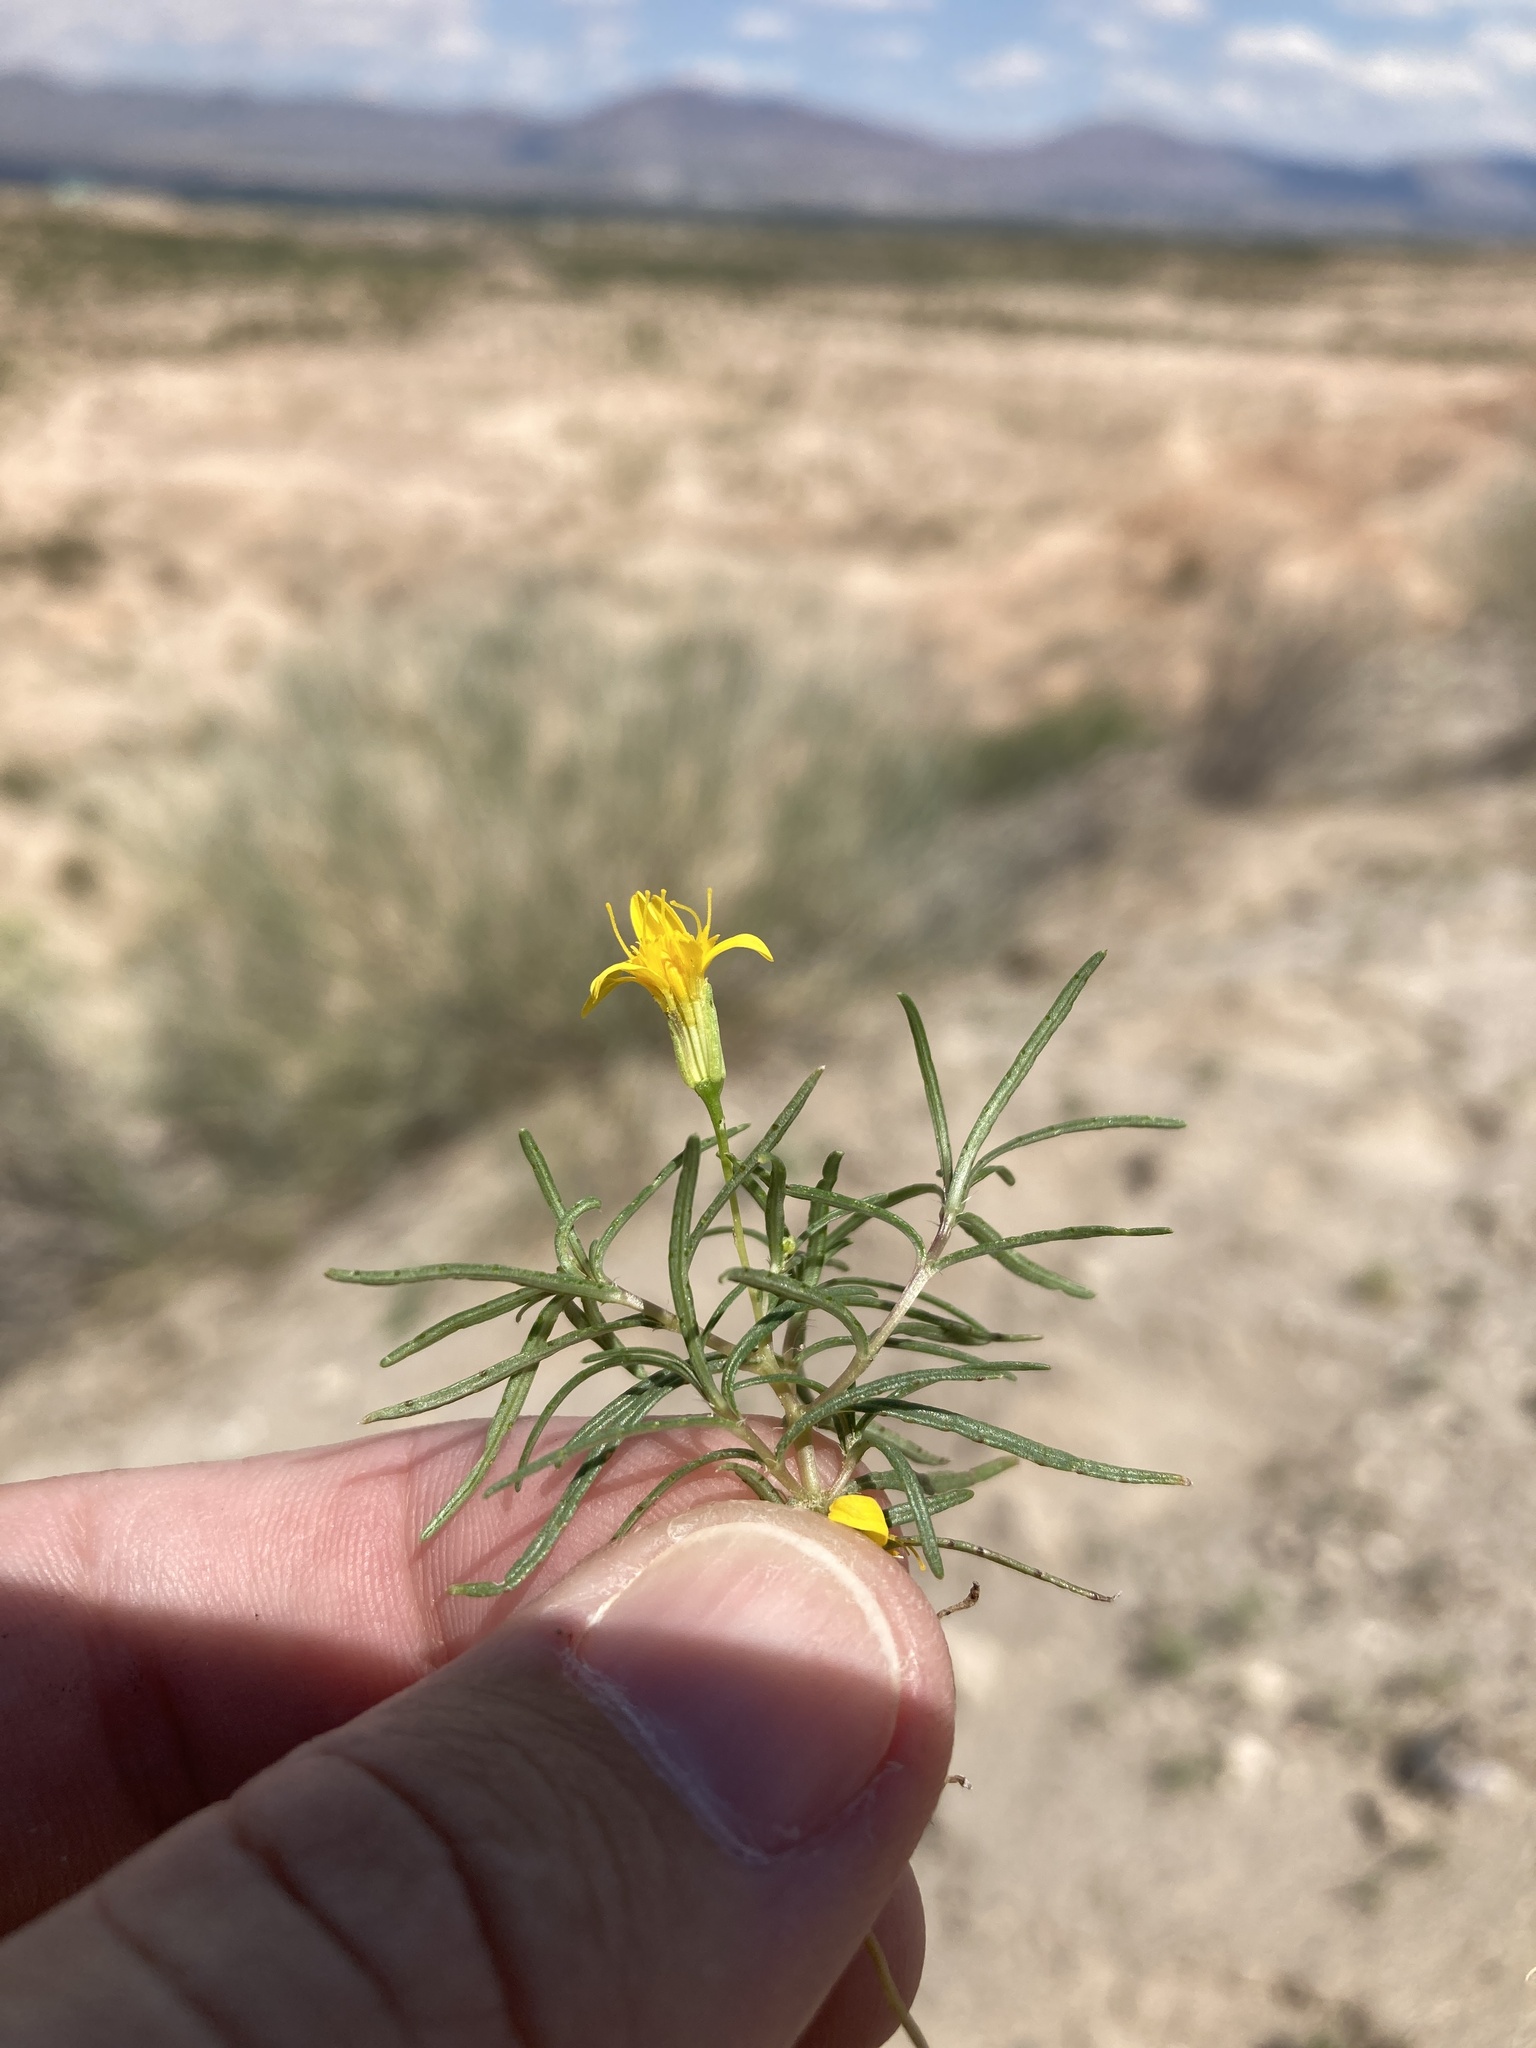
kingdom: Plantae
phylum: Tracheophyta
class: Magnoliopsida
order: Asterales
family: Asteraceae
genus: Pectis
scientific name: Pectis papposa
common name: Many-bristle chinchweed
